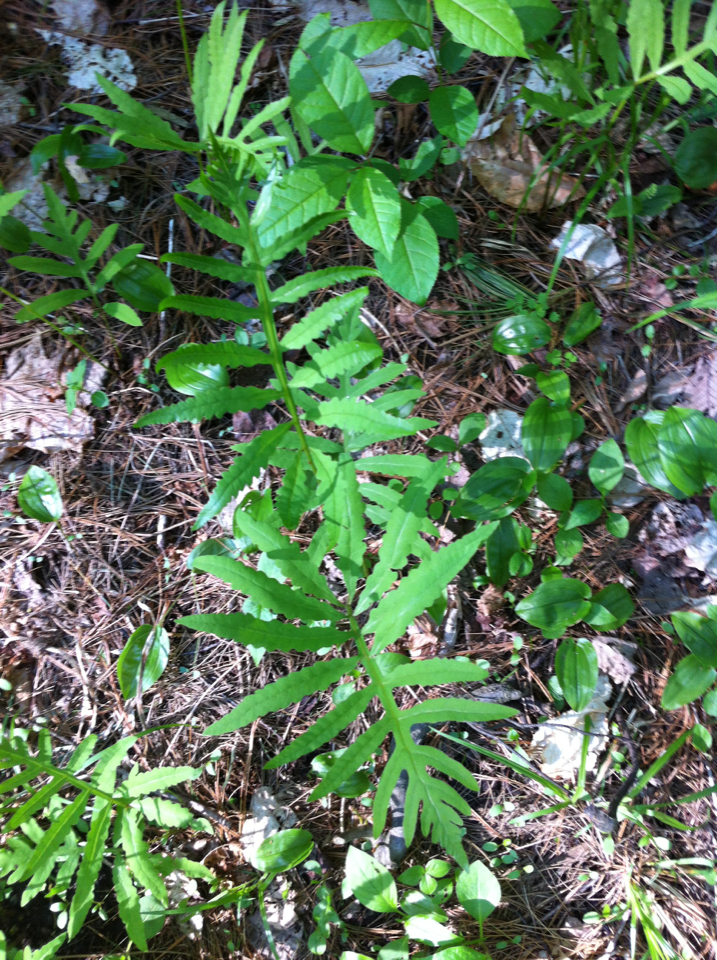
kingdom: Plantae
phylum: Tracheophyta
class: Polypodiopsida
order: Polypodiales
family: Onocleaceae
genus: Onoclea
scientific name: Onoclea sensibilis
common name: Sensitive fern
